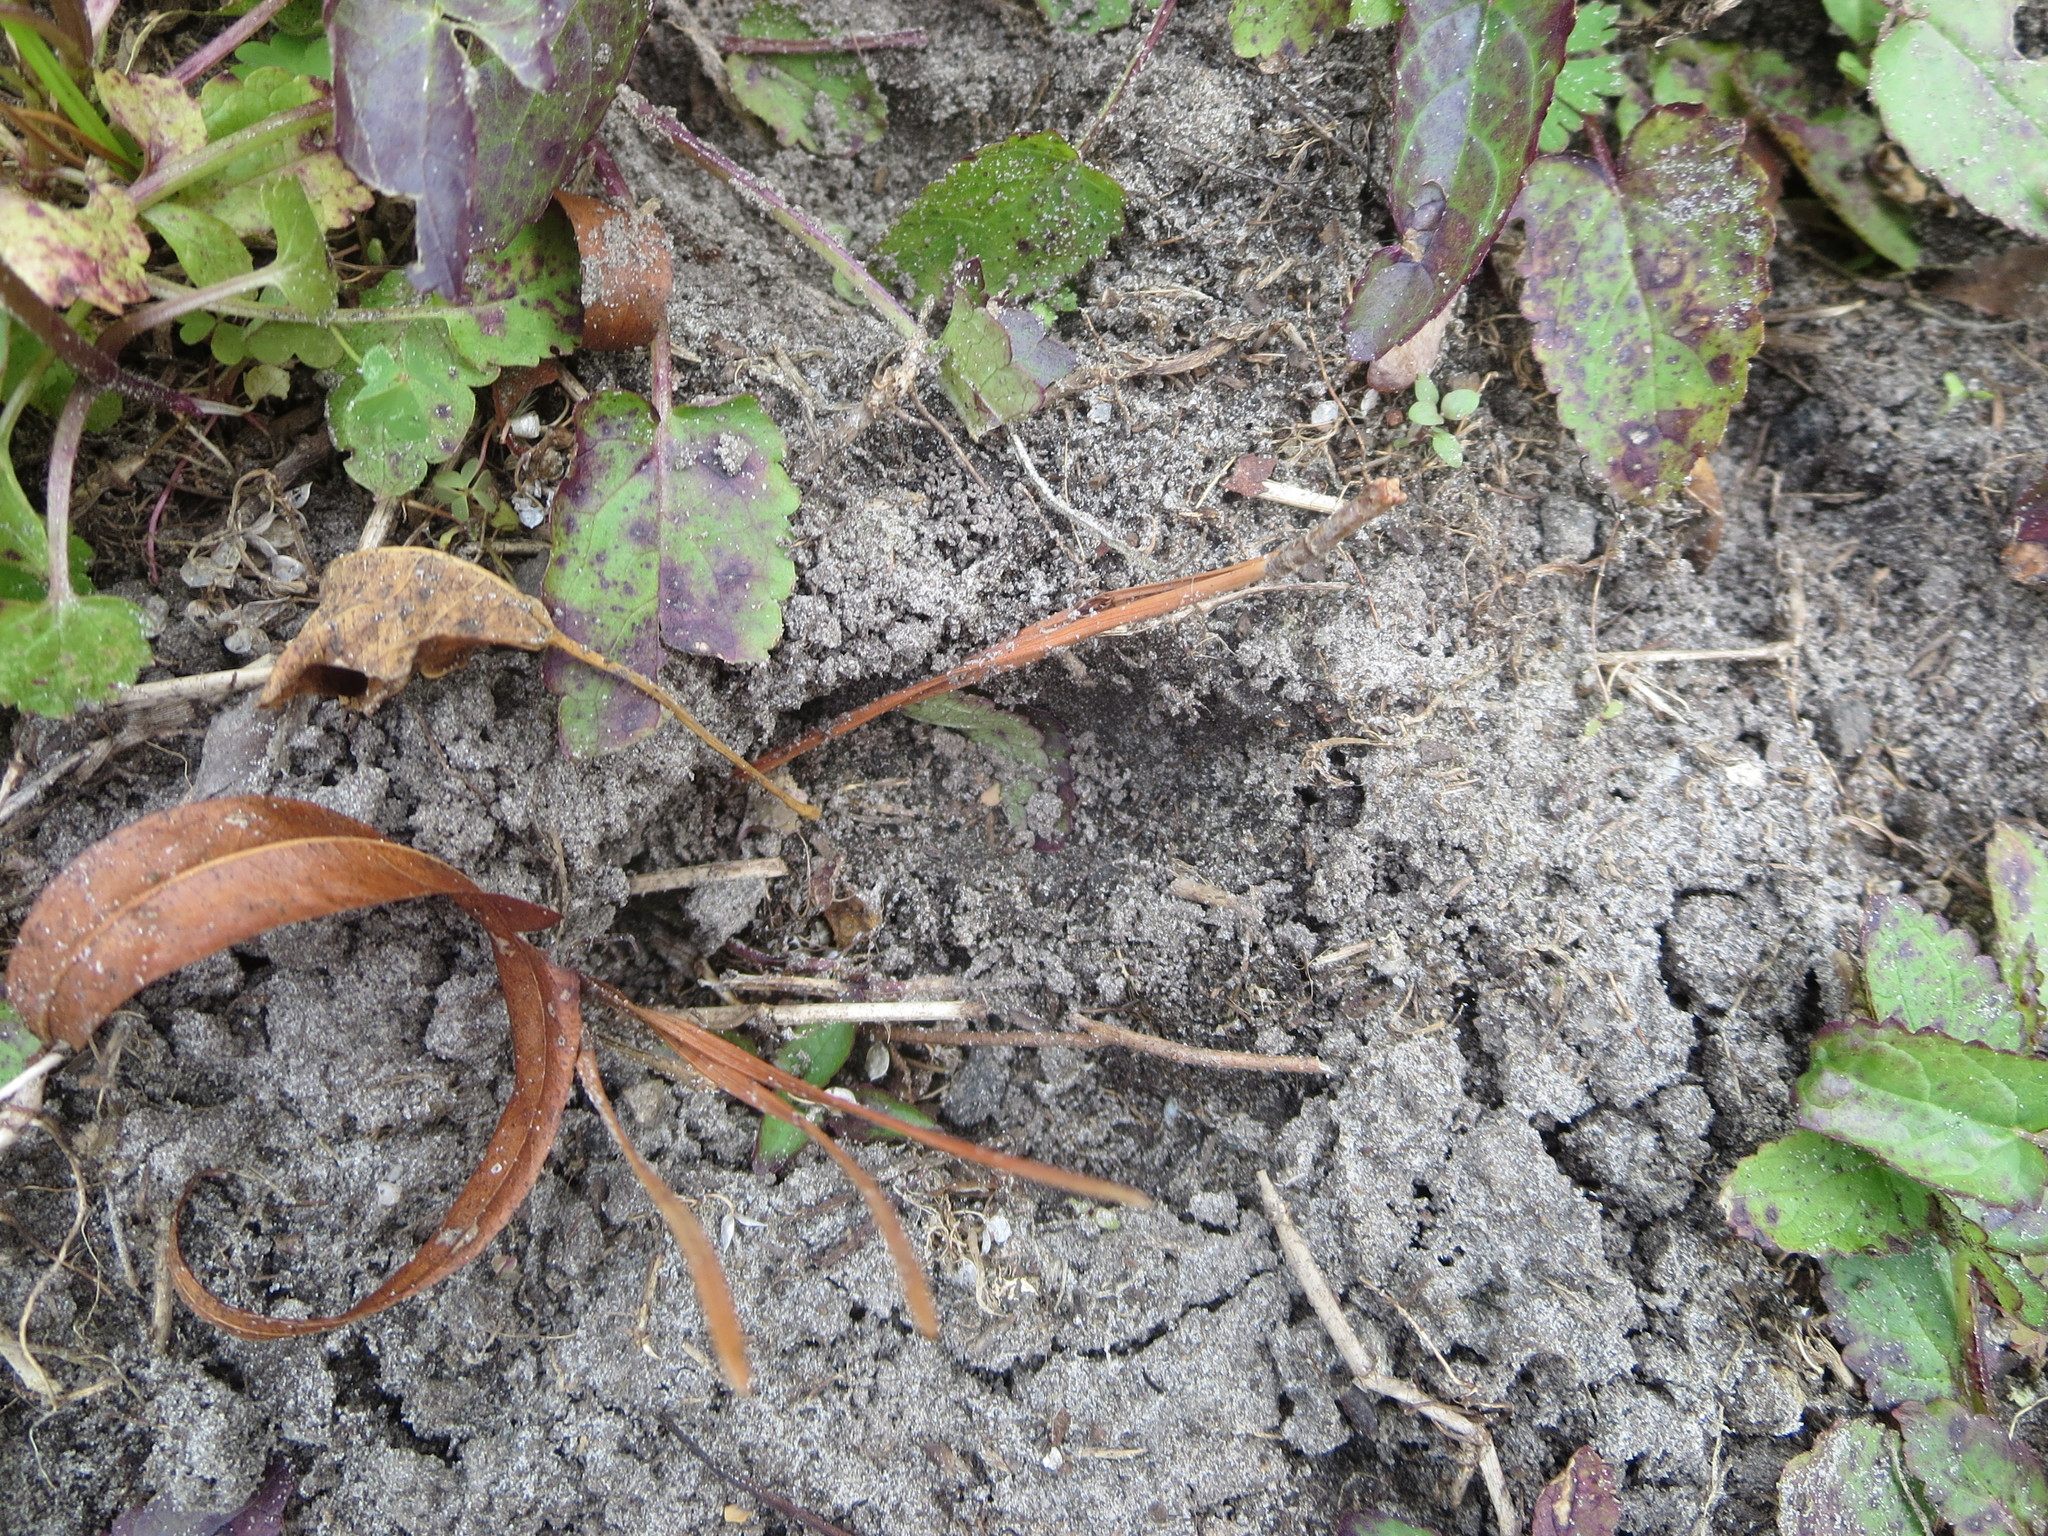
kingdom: Animalia
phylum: Chordata
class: Mammalia
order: Artiodactyla
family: Cervidae
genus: Odocoileus
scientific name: Odocoileus virginianus
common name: White-tailed deer
